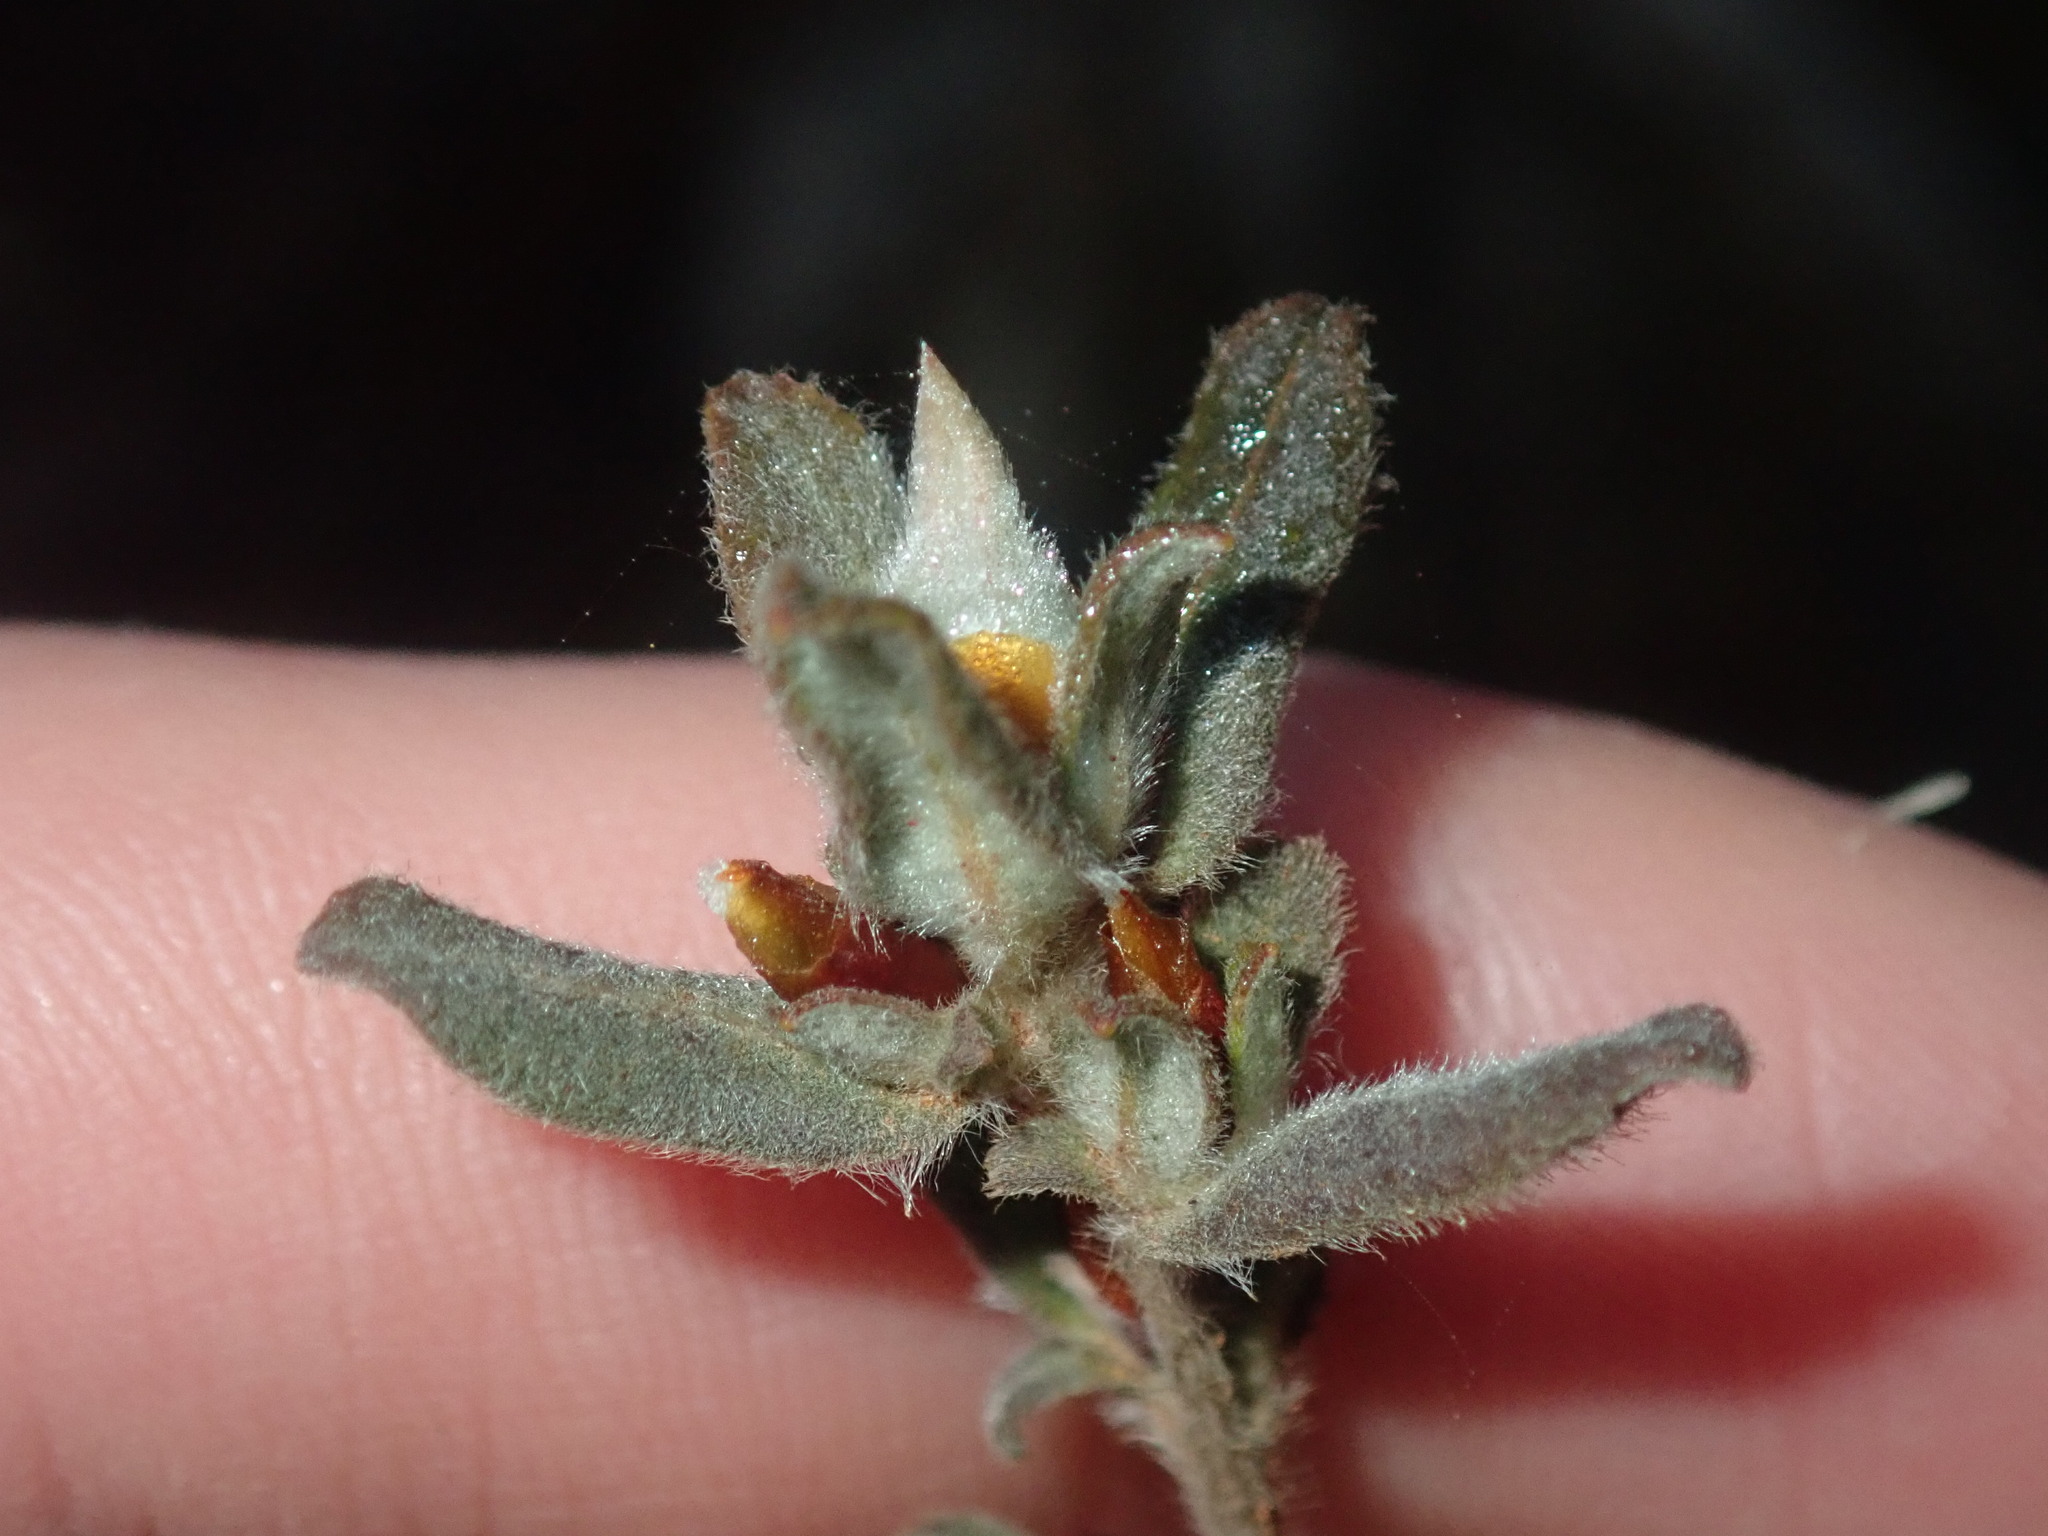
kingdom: Plantae
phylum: Tracheophyta
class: Magnoliopsida
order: Dilleniales
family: Dilleniaceae
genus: Hibbertia
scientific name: Hibbertia commutata
